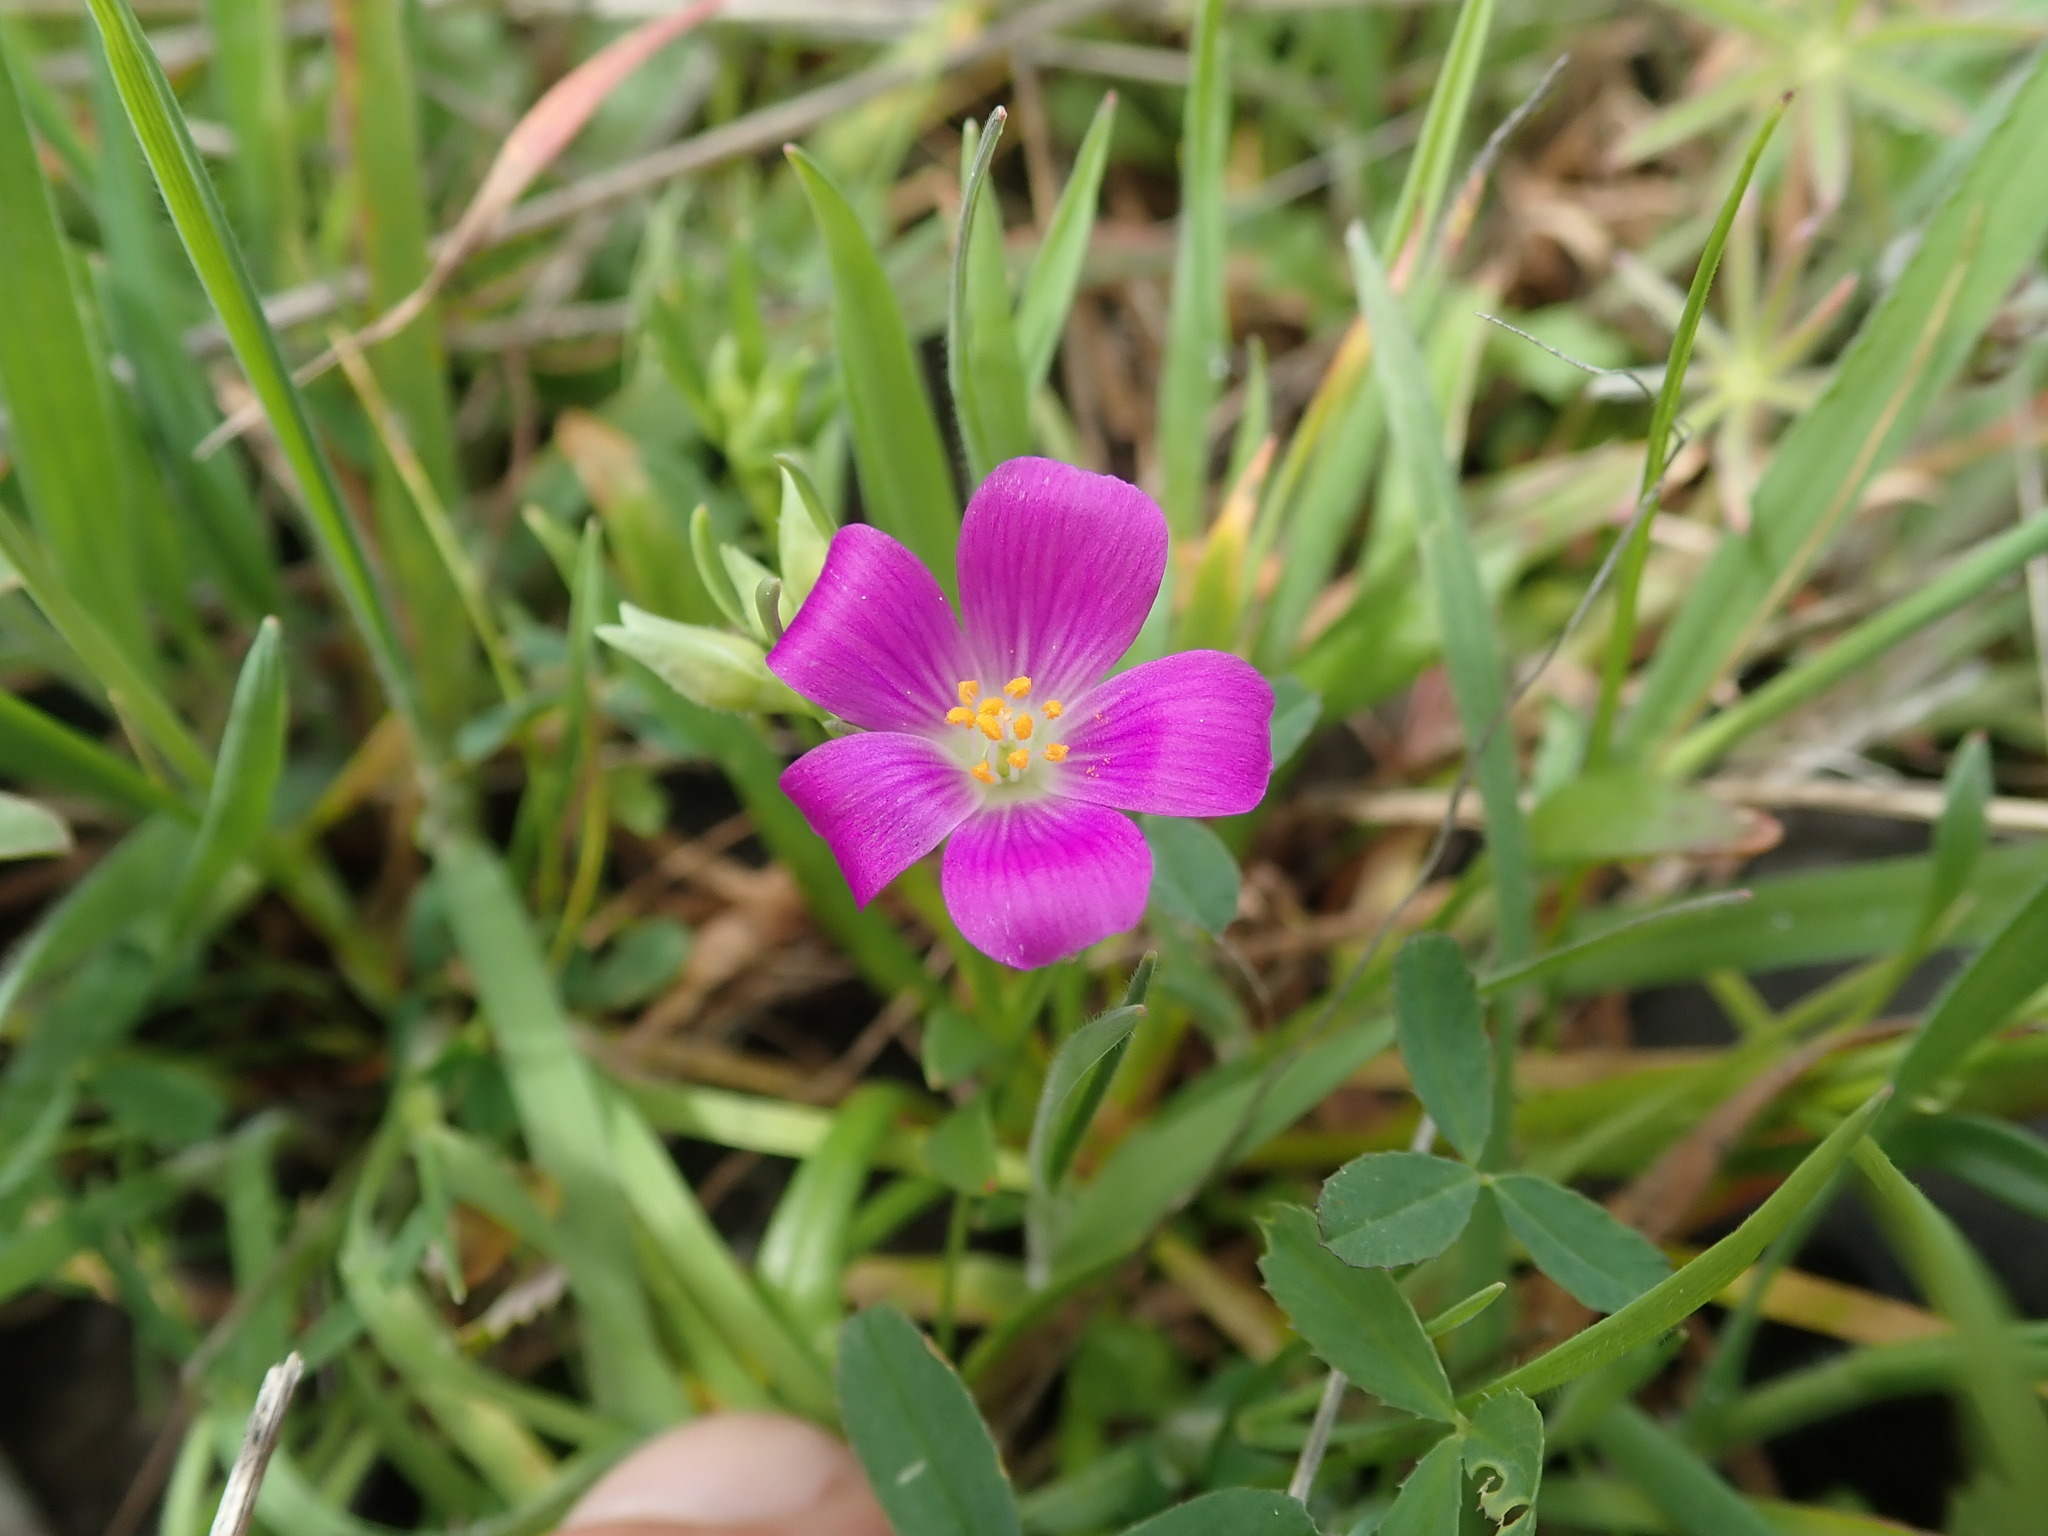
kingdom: Plantae
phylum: Tracheophyta
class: Magnoliopsida
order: Caryophyllales
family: Montiaceae
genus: Calandrinia
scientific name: Calandrinia menziesii
